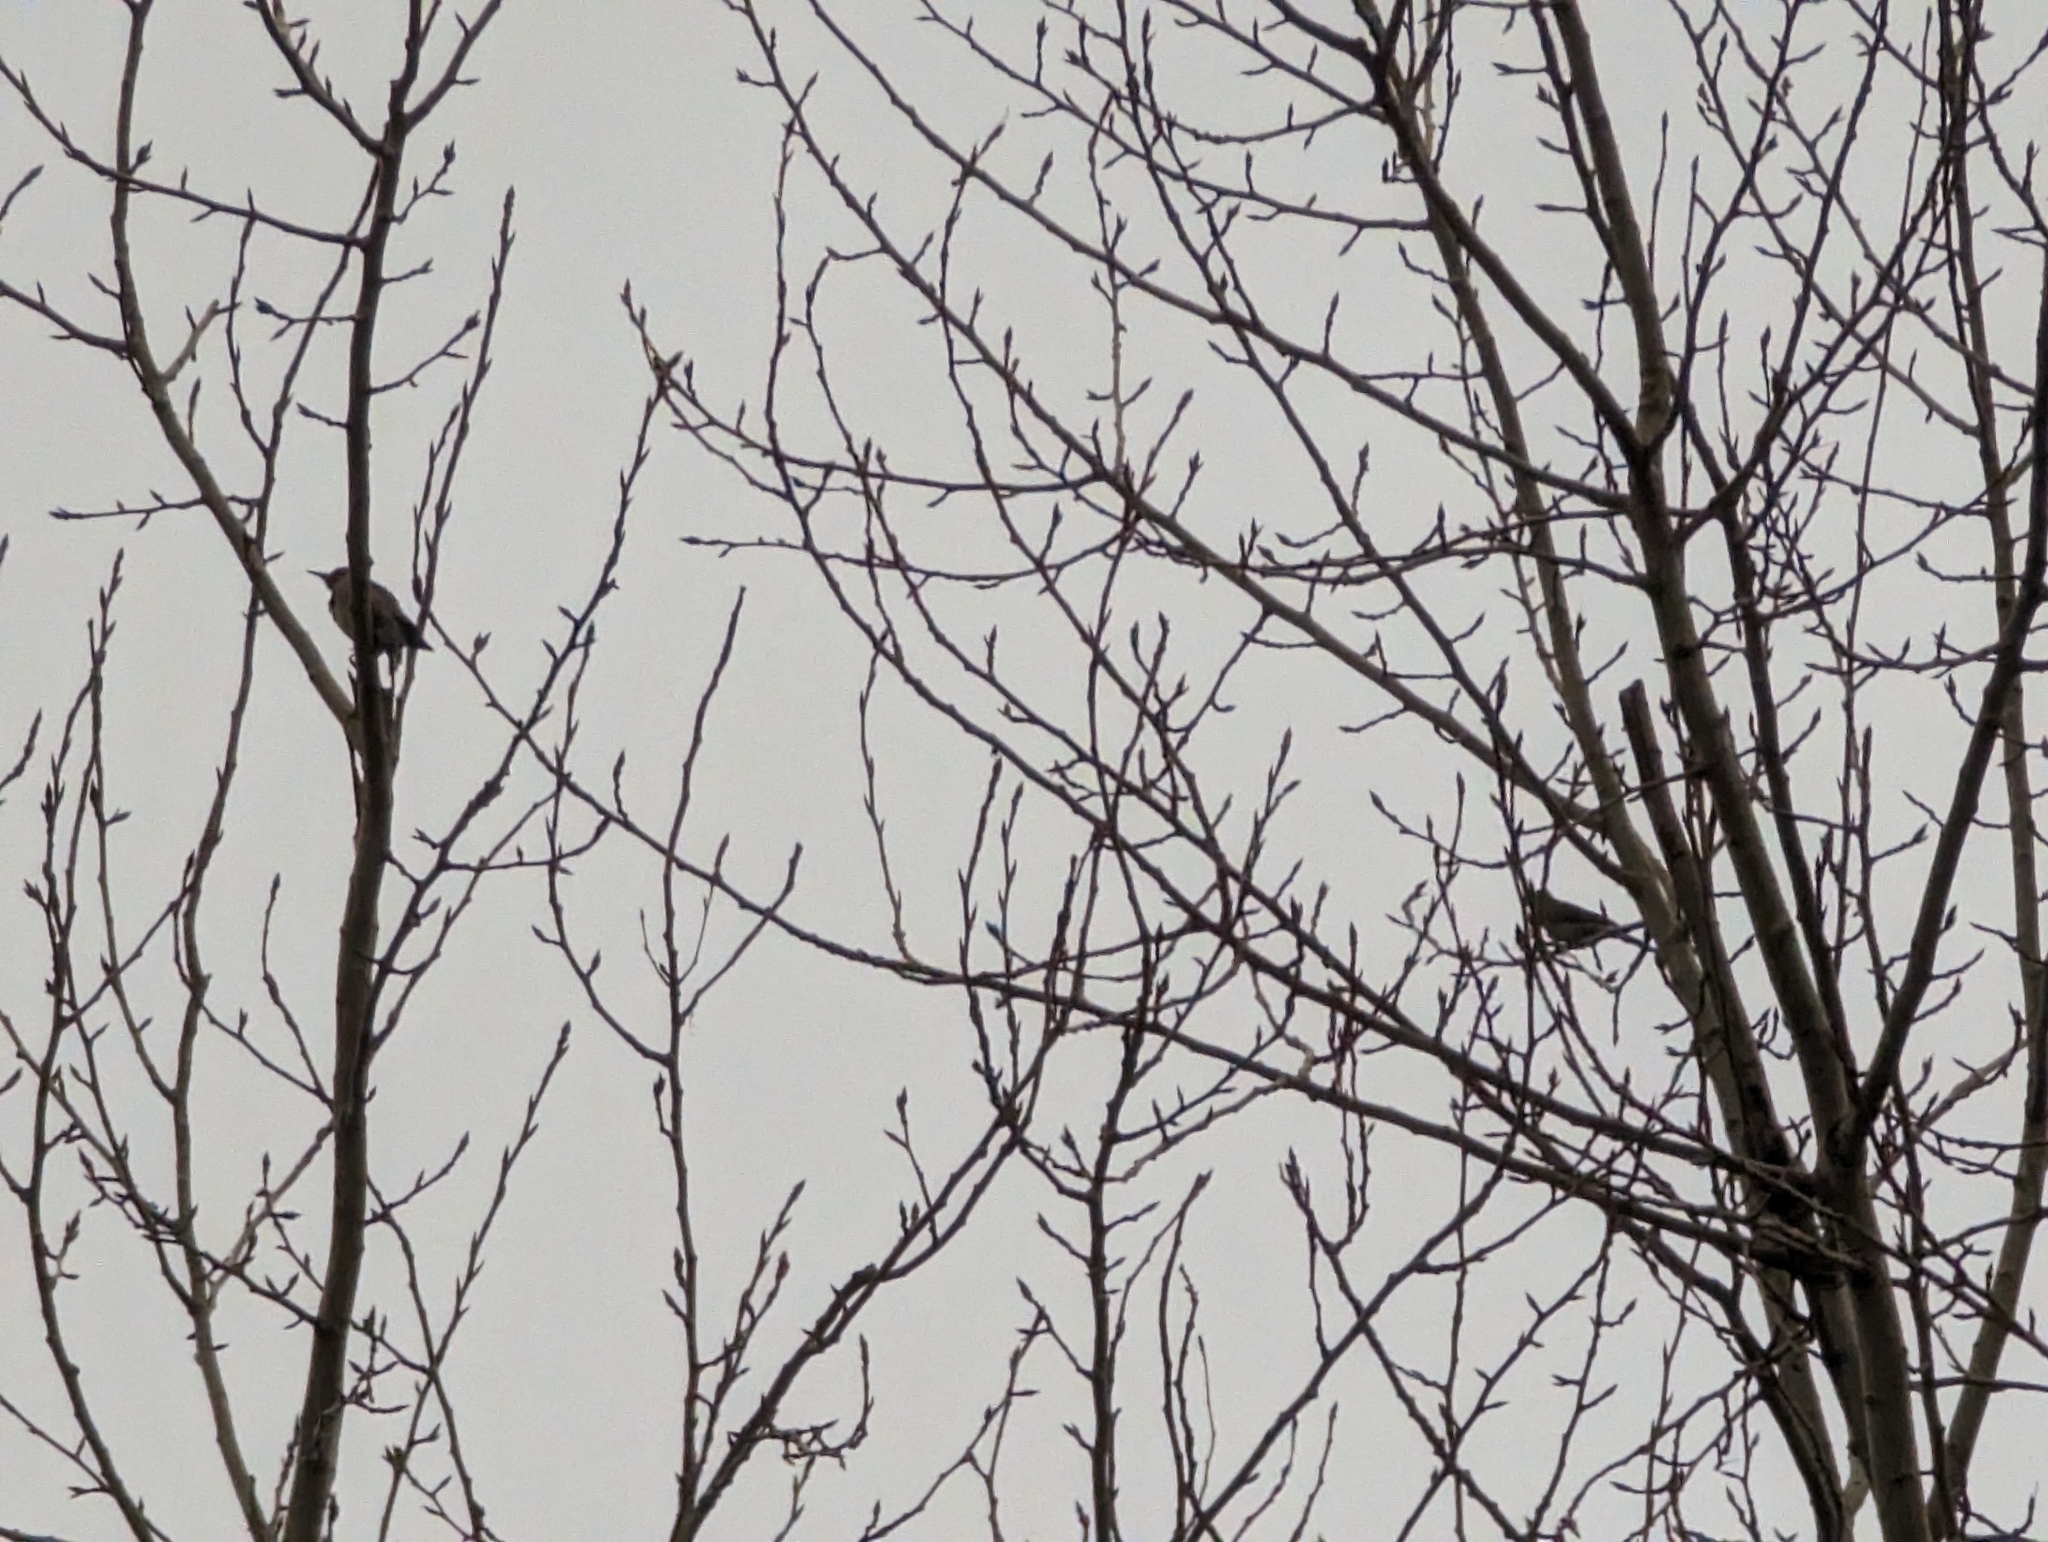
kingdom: Animalia
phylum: Chordata
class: Aves
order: Piciformes
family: Picidae
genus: Colaptes
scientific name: Colaptes auratus
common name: Northern flicker
